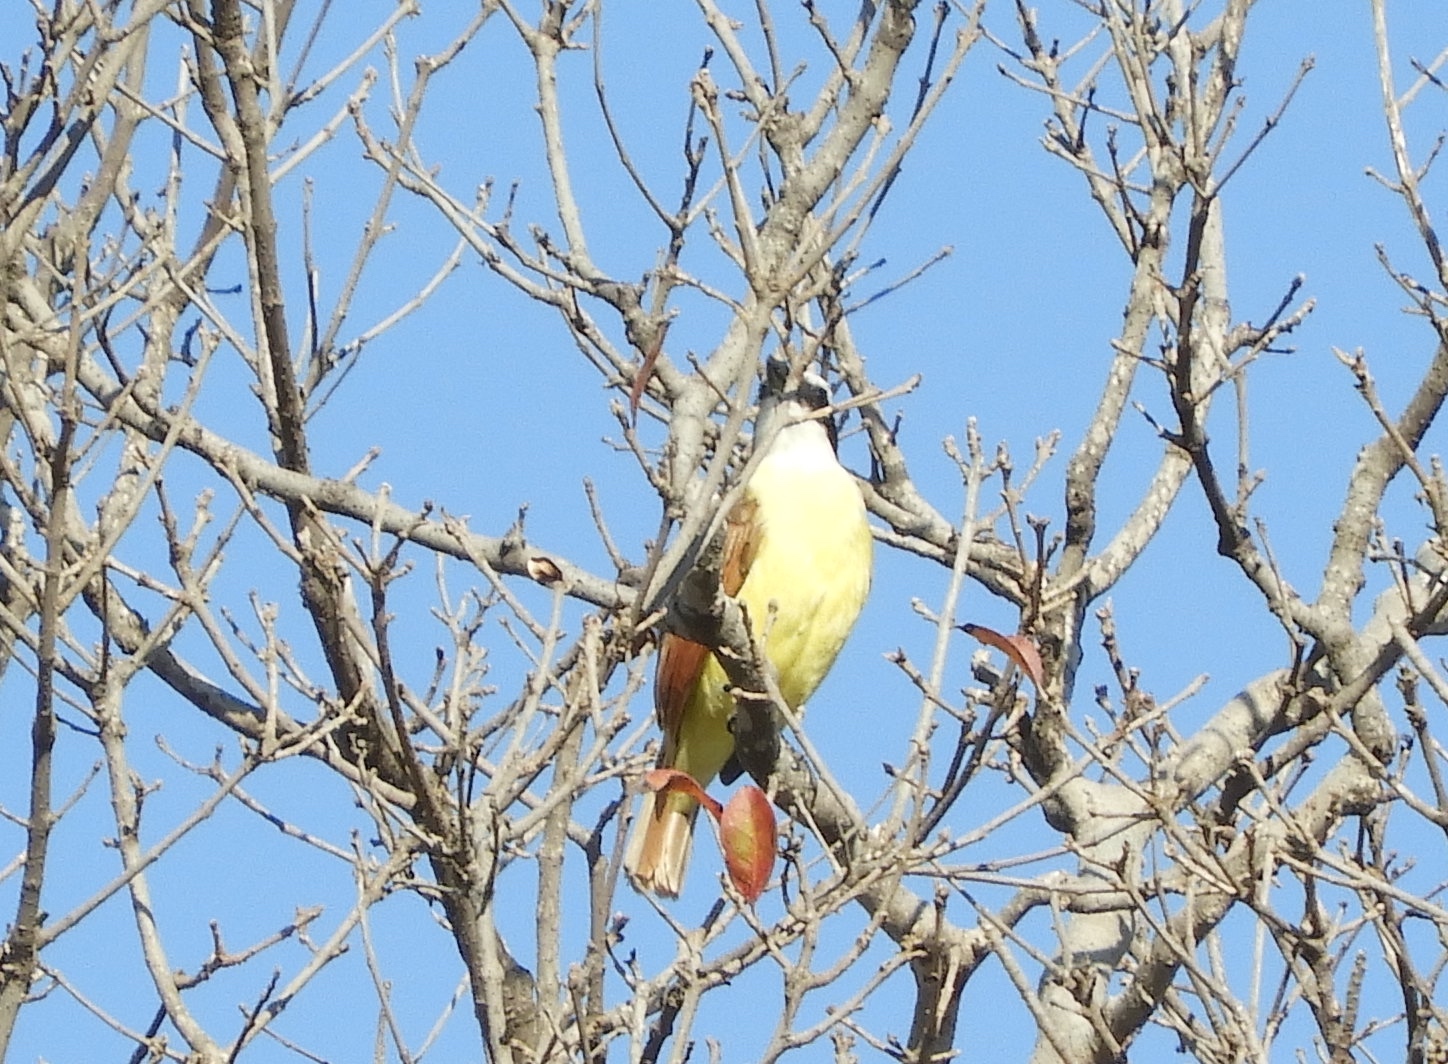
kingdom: Animalia
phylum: Chordata
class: Aves
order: Passeriformes
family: Tyrannidae
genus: Pitangus
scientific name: Pitangus sulphuratus
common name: Great kiskadee
